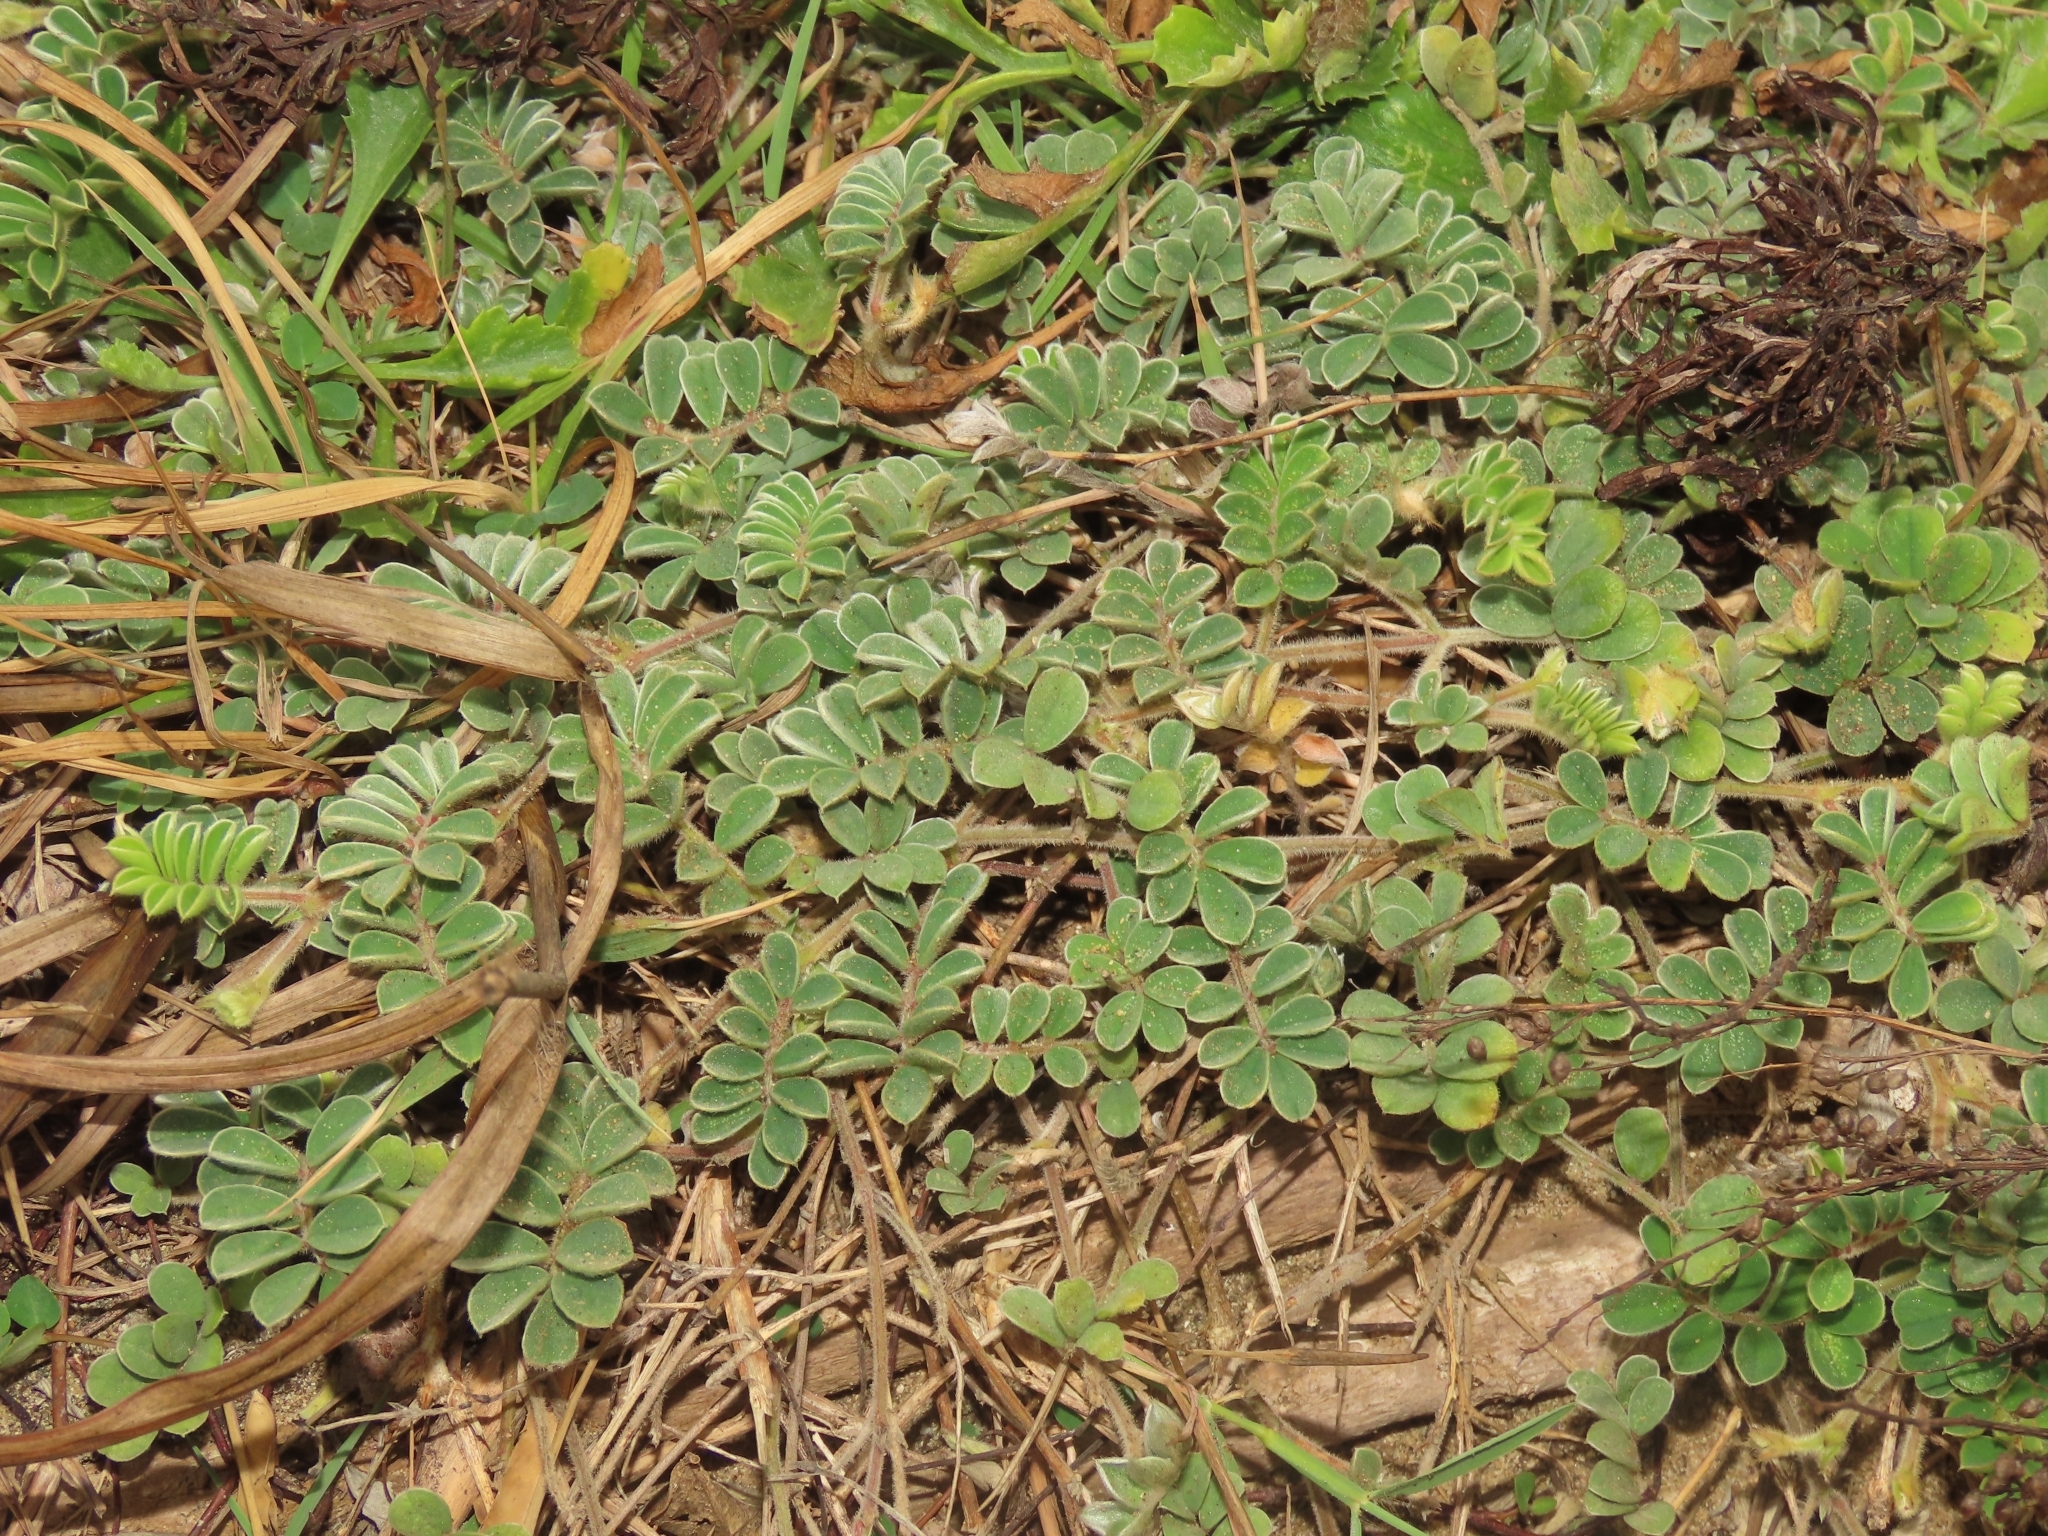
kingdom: Plantae
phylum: Tracheophyta
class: Magnoliopsida
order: Fabales
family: Fabaceae
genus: Tephrosia
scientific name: Tephrosia obovata
